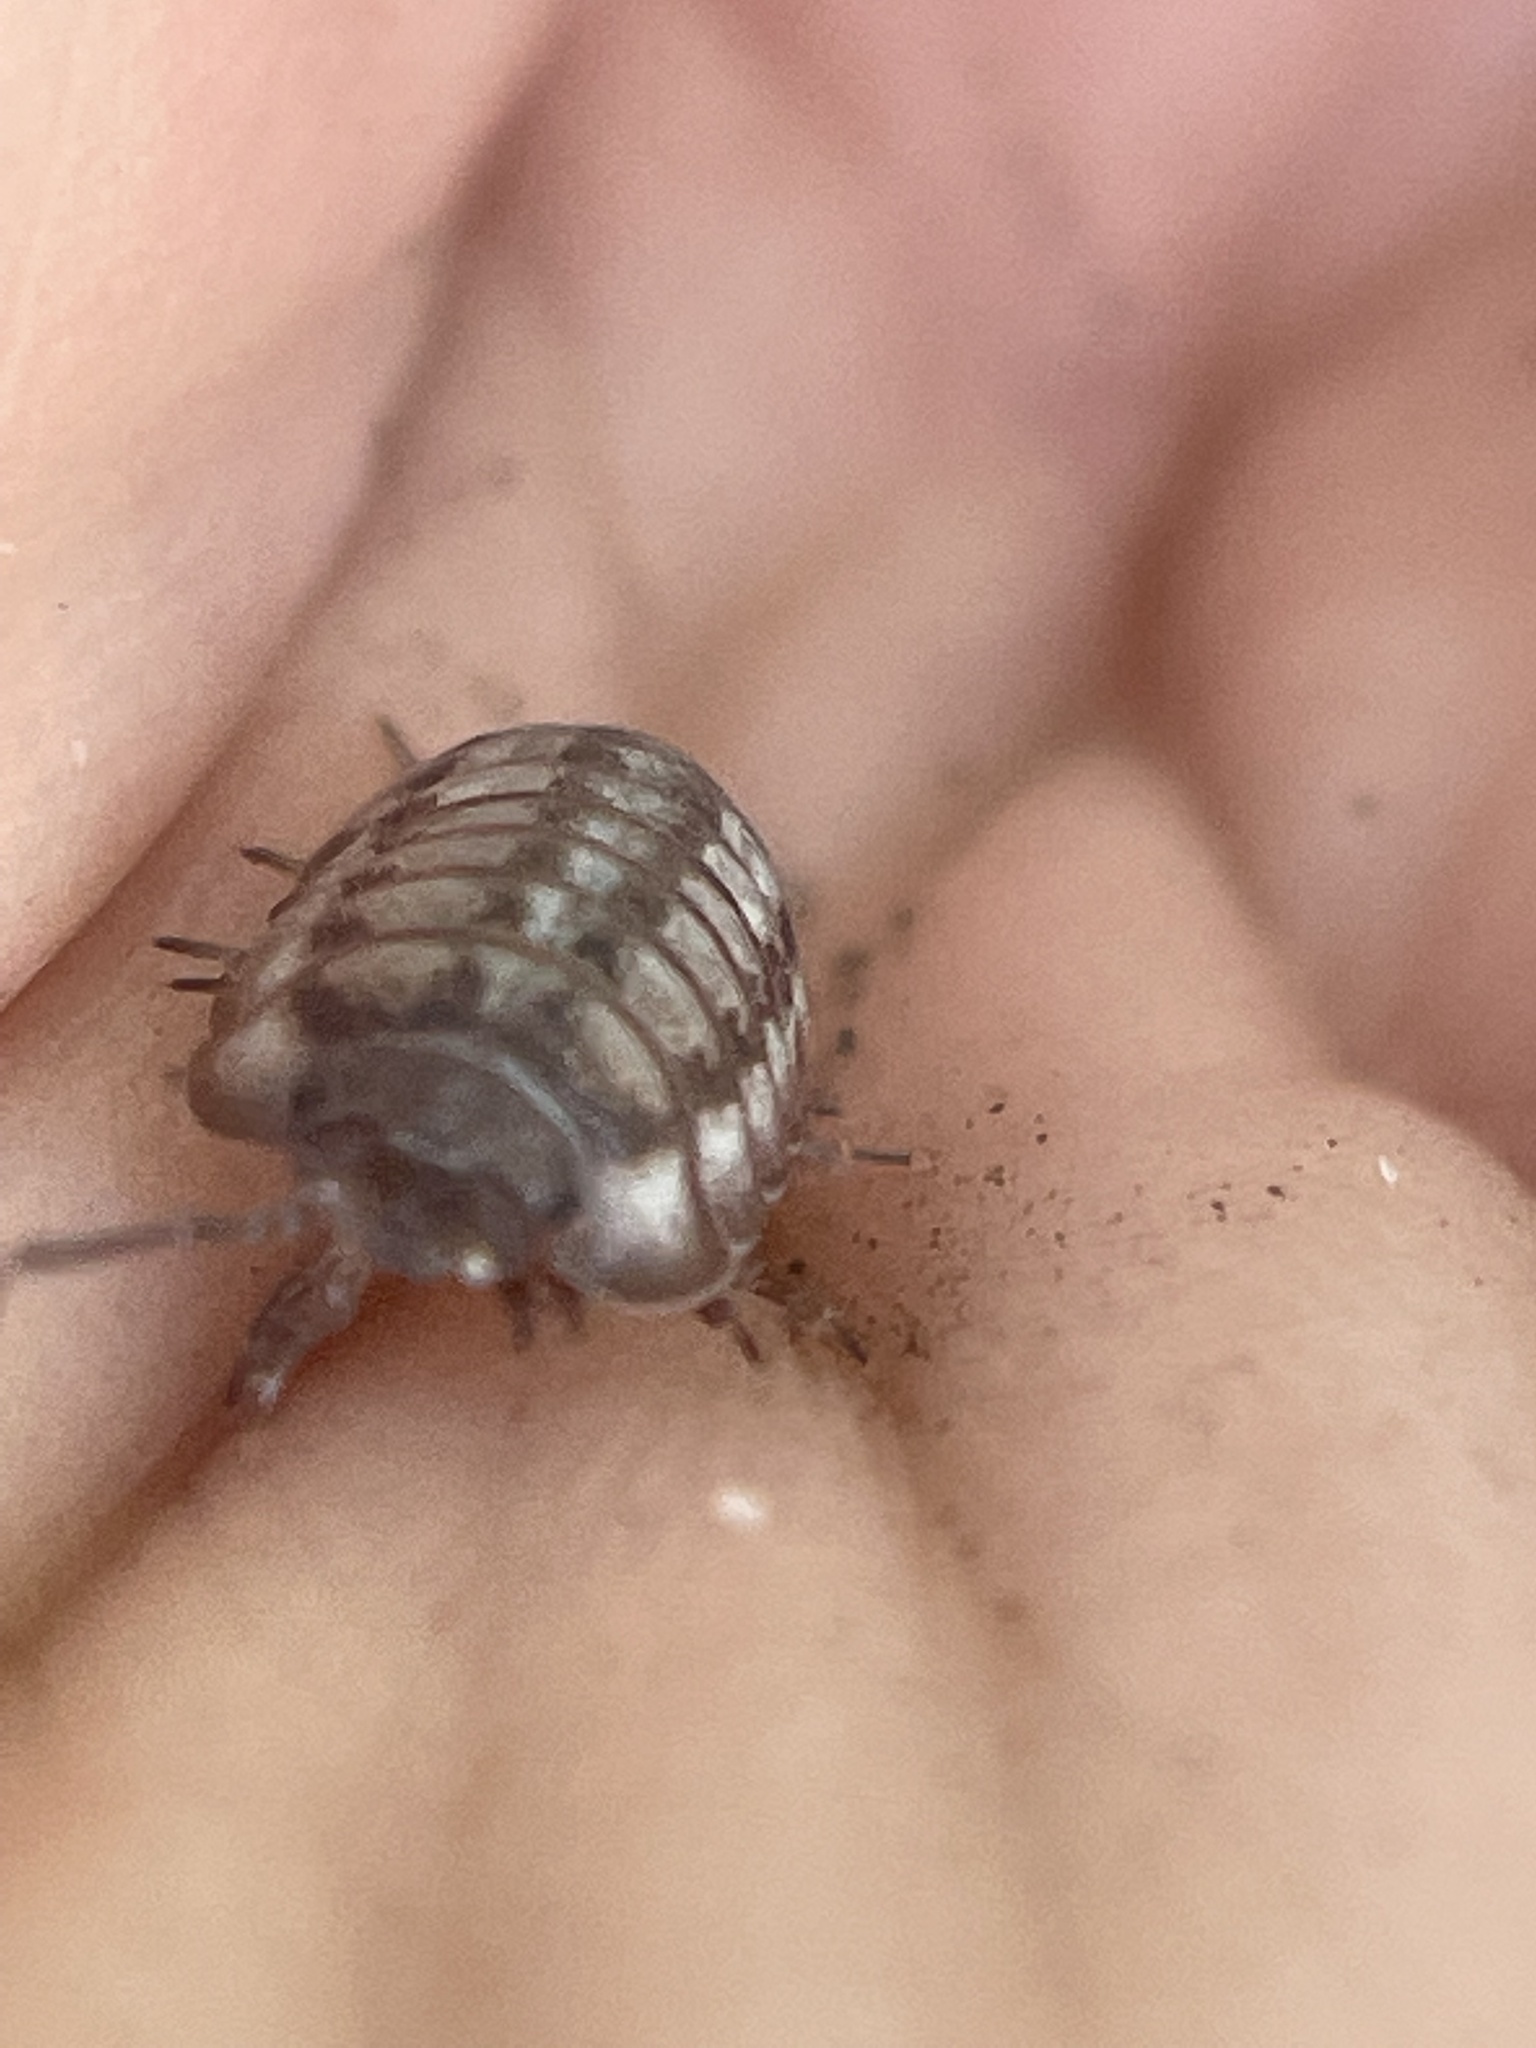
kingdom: Animalia
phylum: Arthropoda
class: Malacostraca
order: Isopoda
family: Armadillidiidae
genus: Armadillidium
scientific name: Armadillidium nasatum
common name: Isopod
